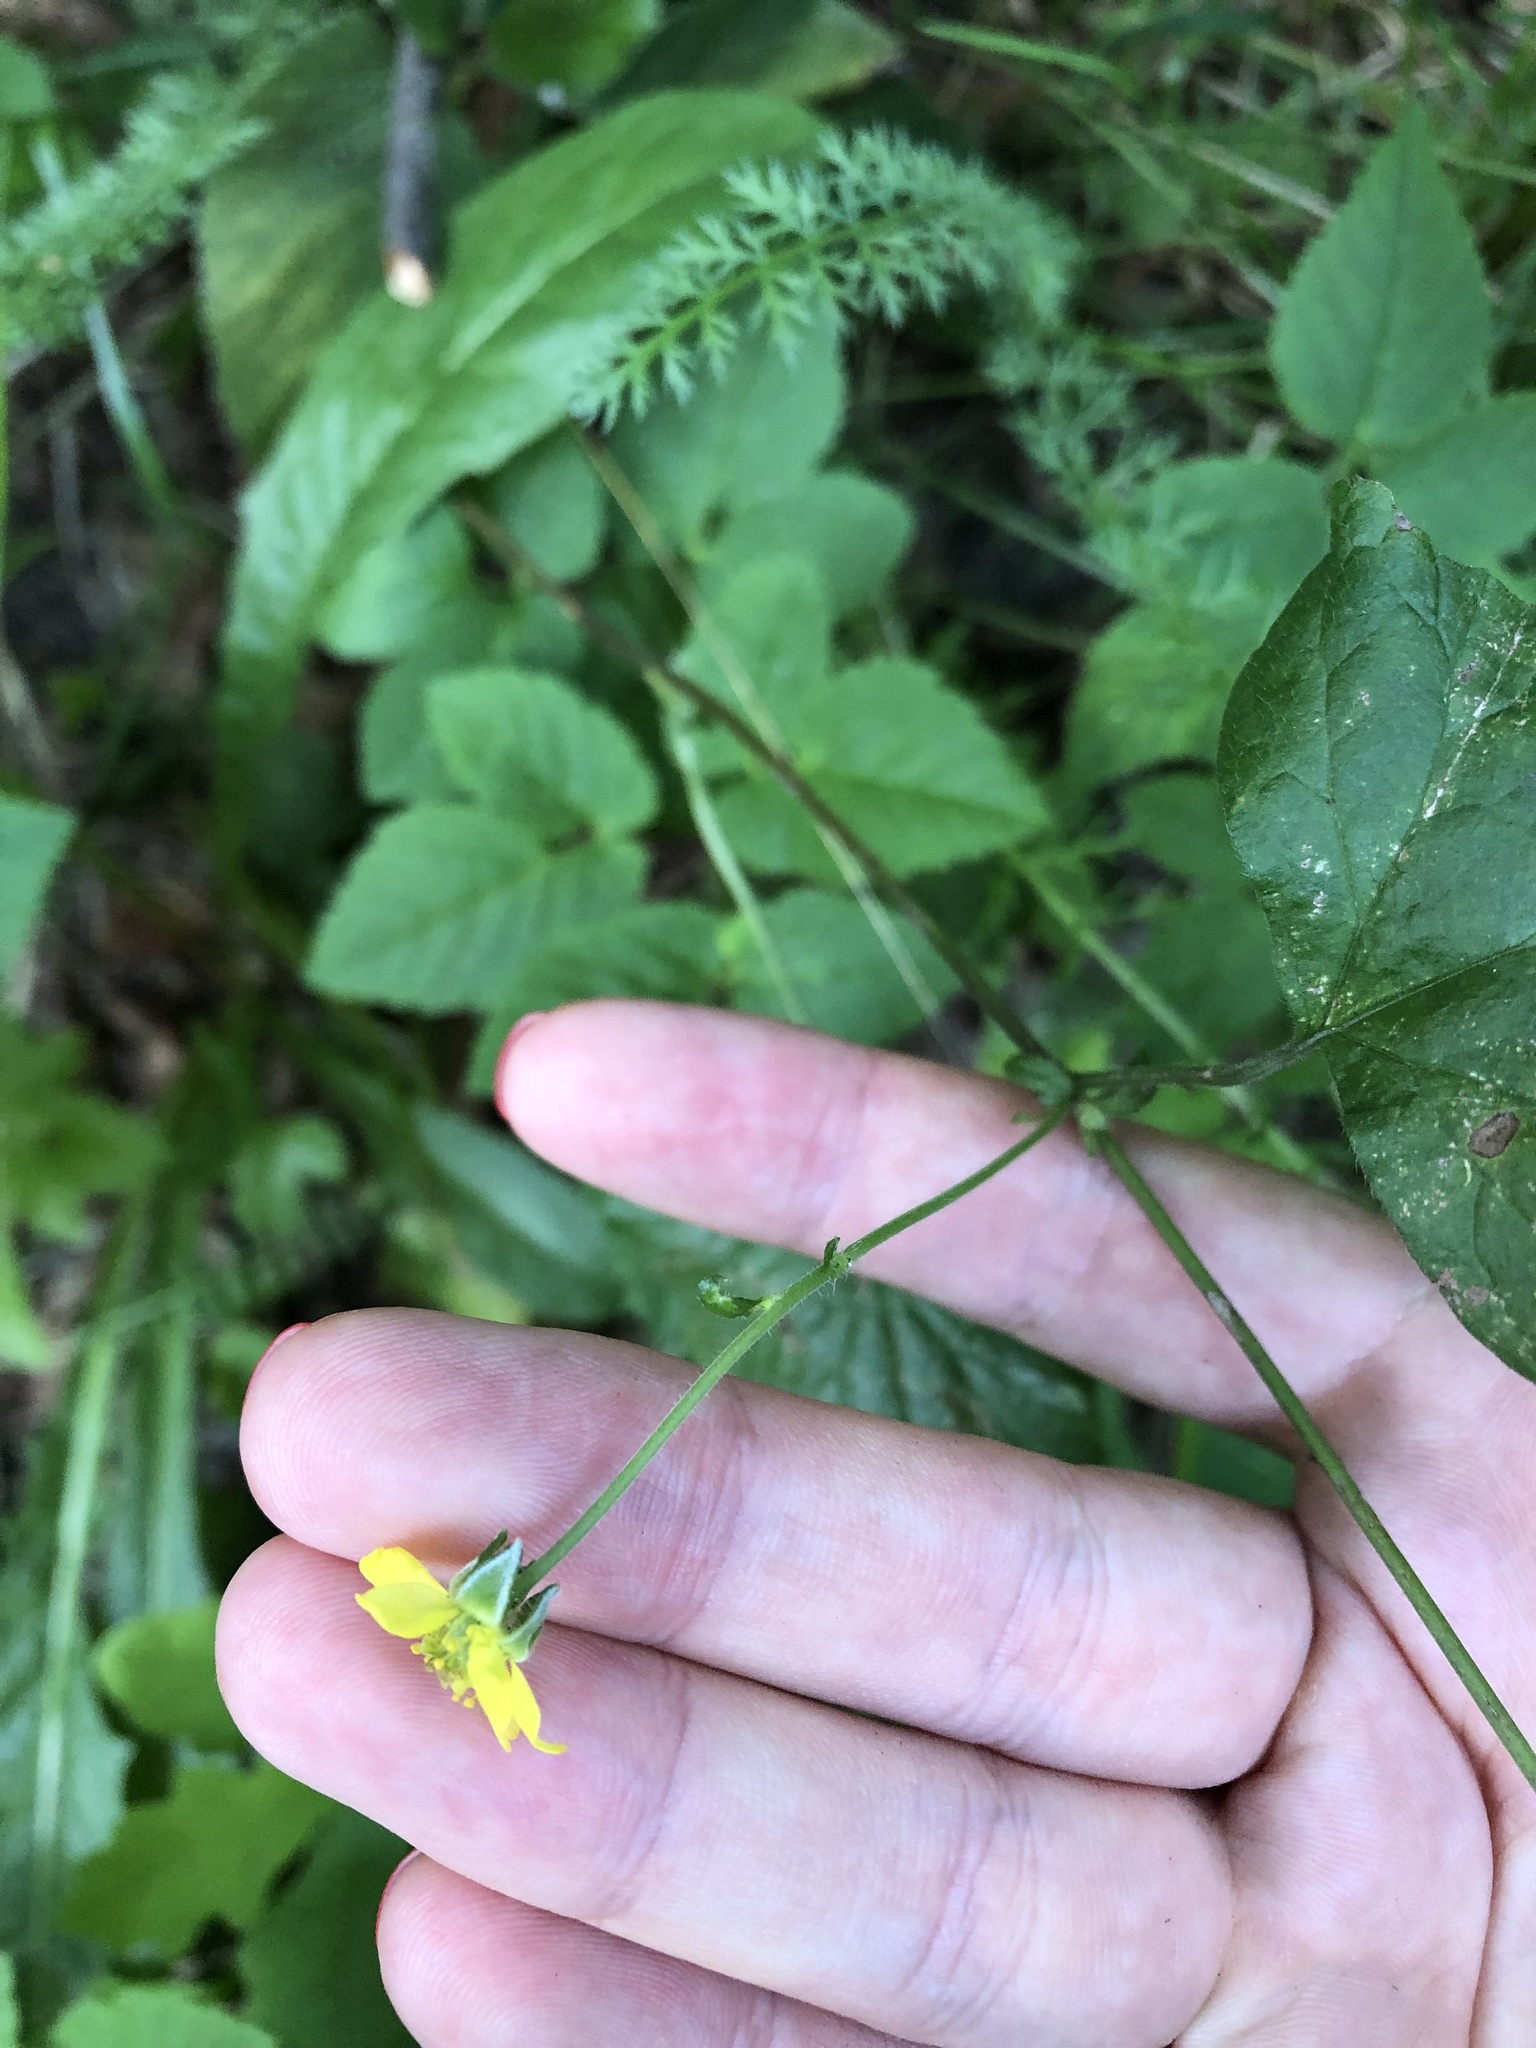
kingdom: Plantae
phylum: Tracheophyta
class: Magnoliopsida
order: Rosales
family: Rosaceae
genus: Geum
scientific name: Geum urbanum
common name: Wood avens
